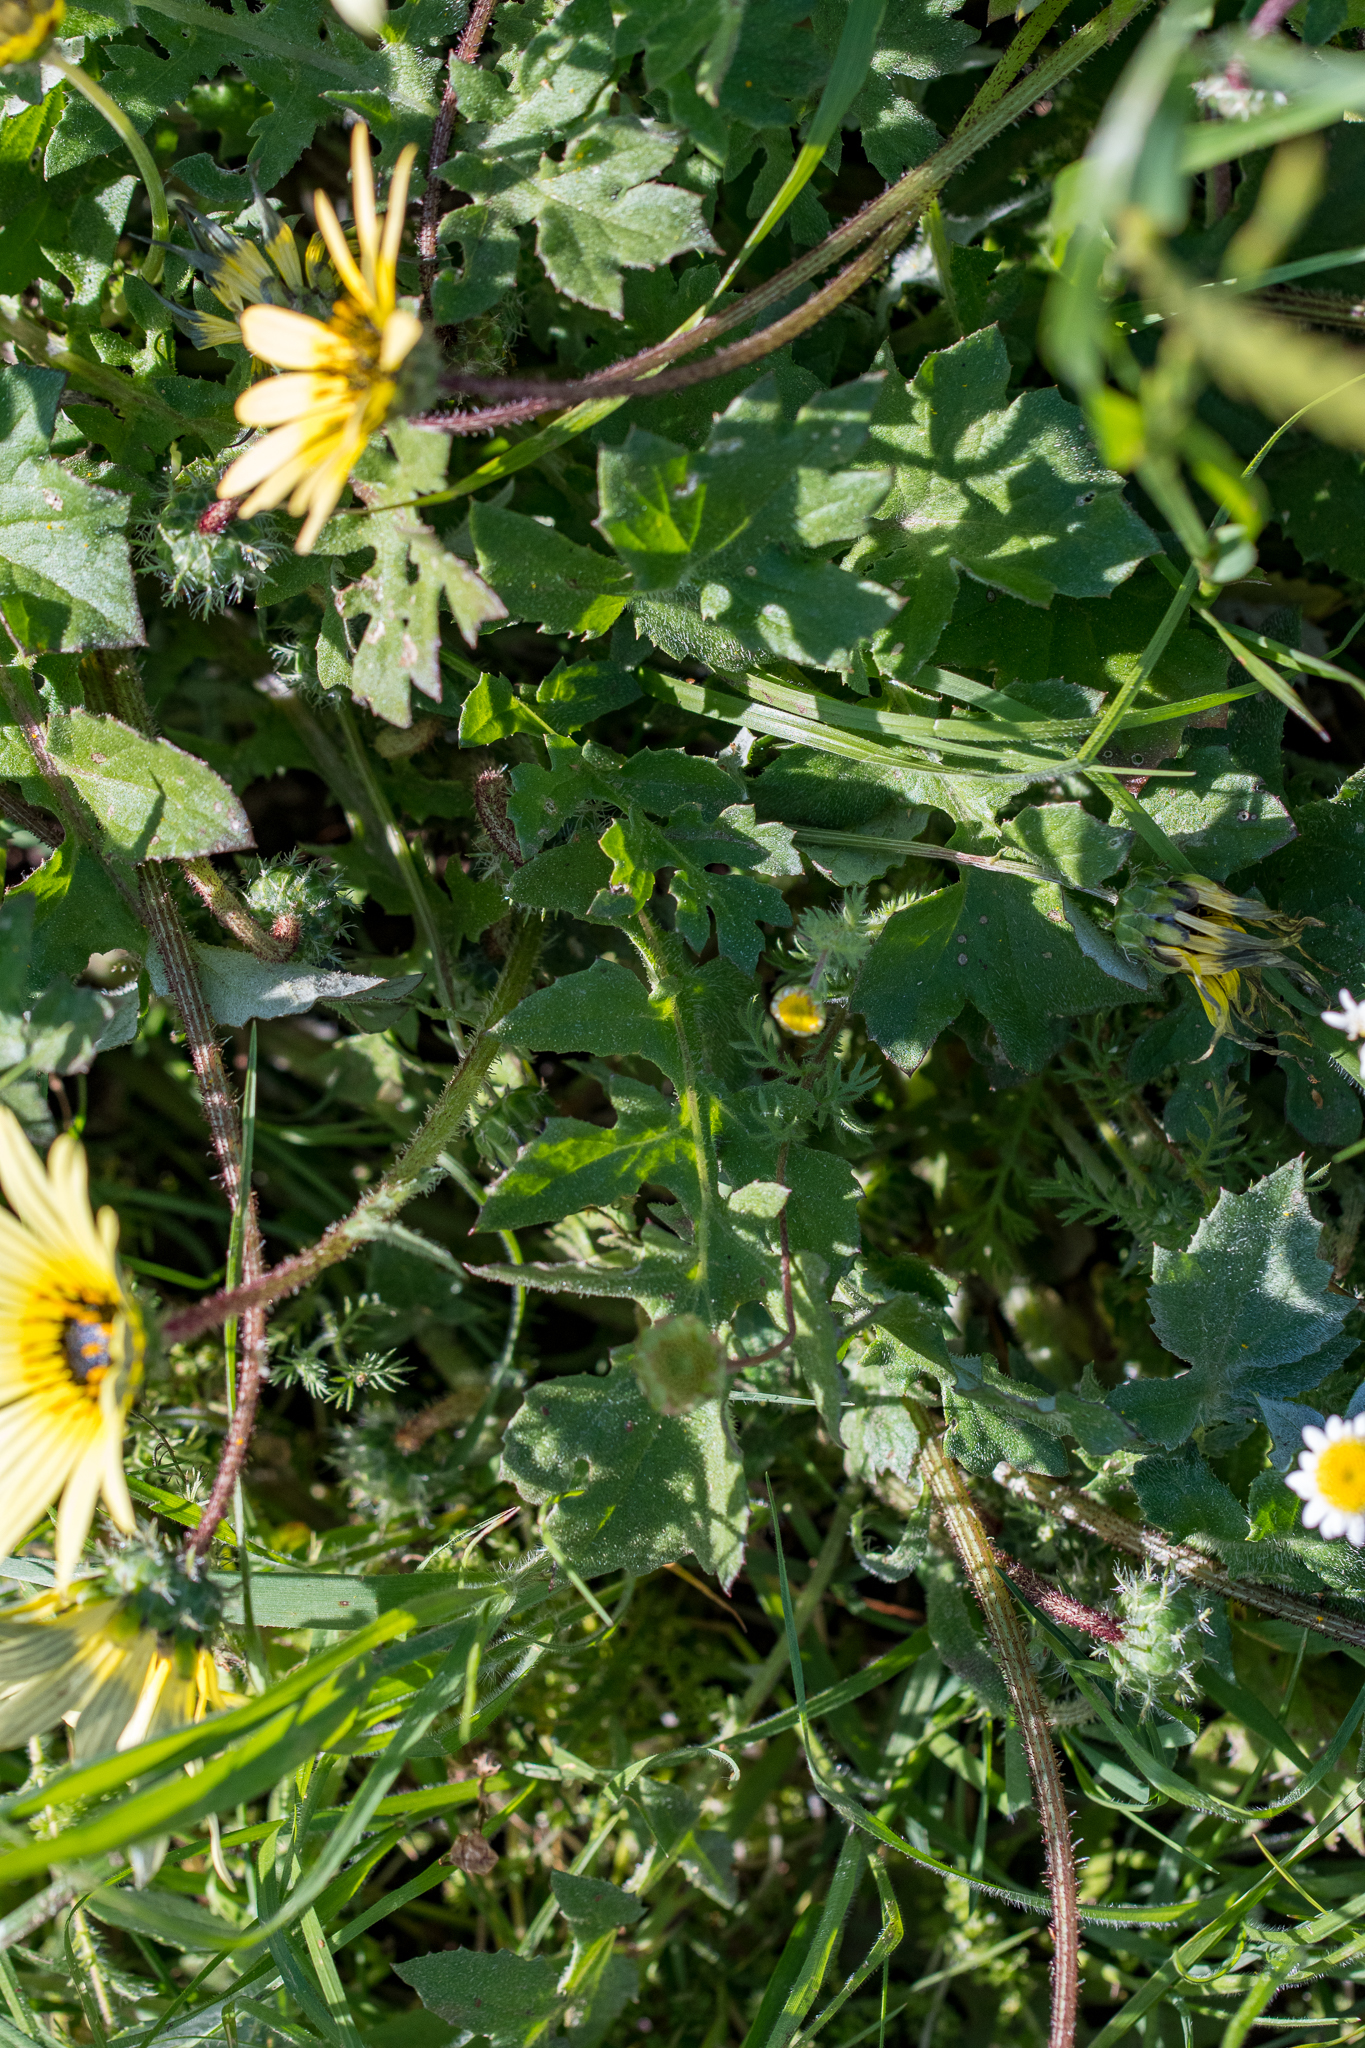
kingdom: Plantae
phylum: Tracheophyta
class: Magnoliopsida
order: Asterales
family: Asteraceae
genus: Arctotheca
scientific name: Arctotheca calendula
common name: Capeweed
